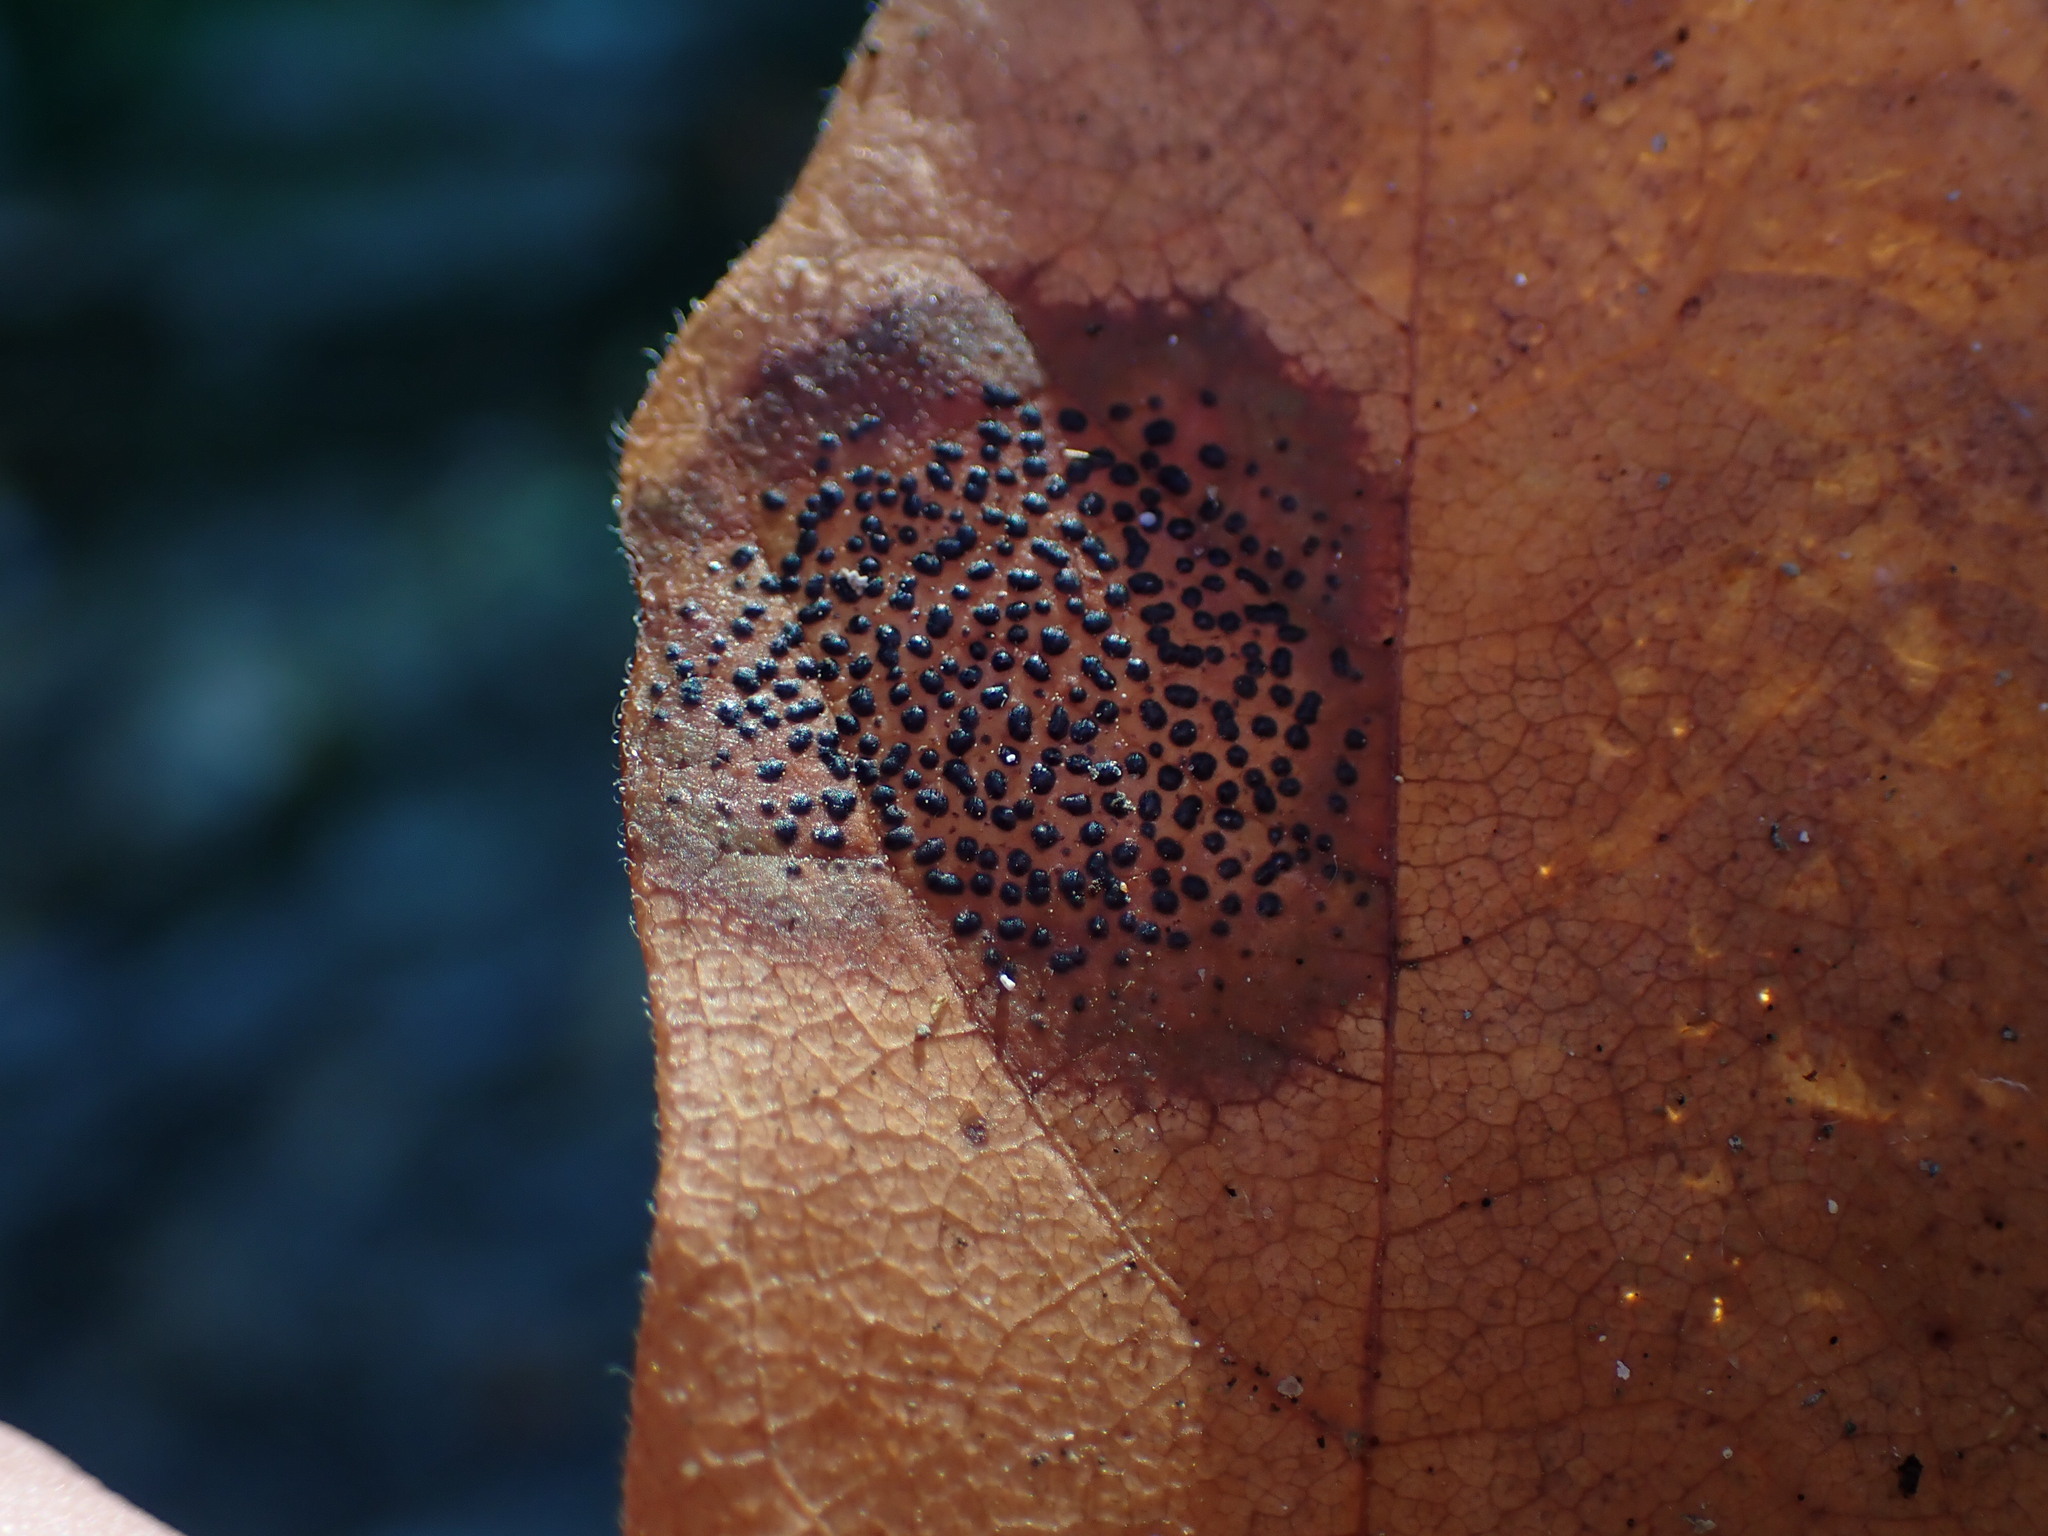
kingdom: Fungi
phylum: Ascomycota
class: Leotiomycetes
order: Rhytismatales
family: Rhytismataceae
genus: Rhytisma
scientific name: Rhytisma punctatum
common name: Speckled tar spot
